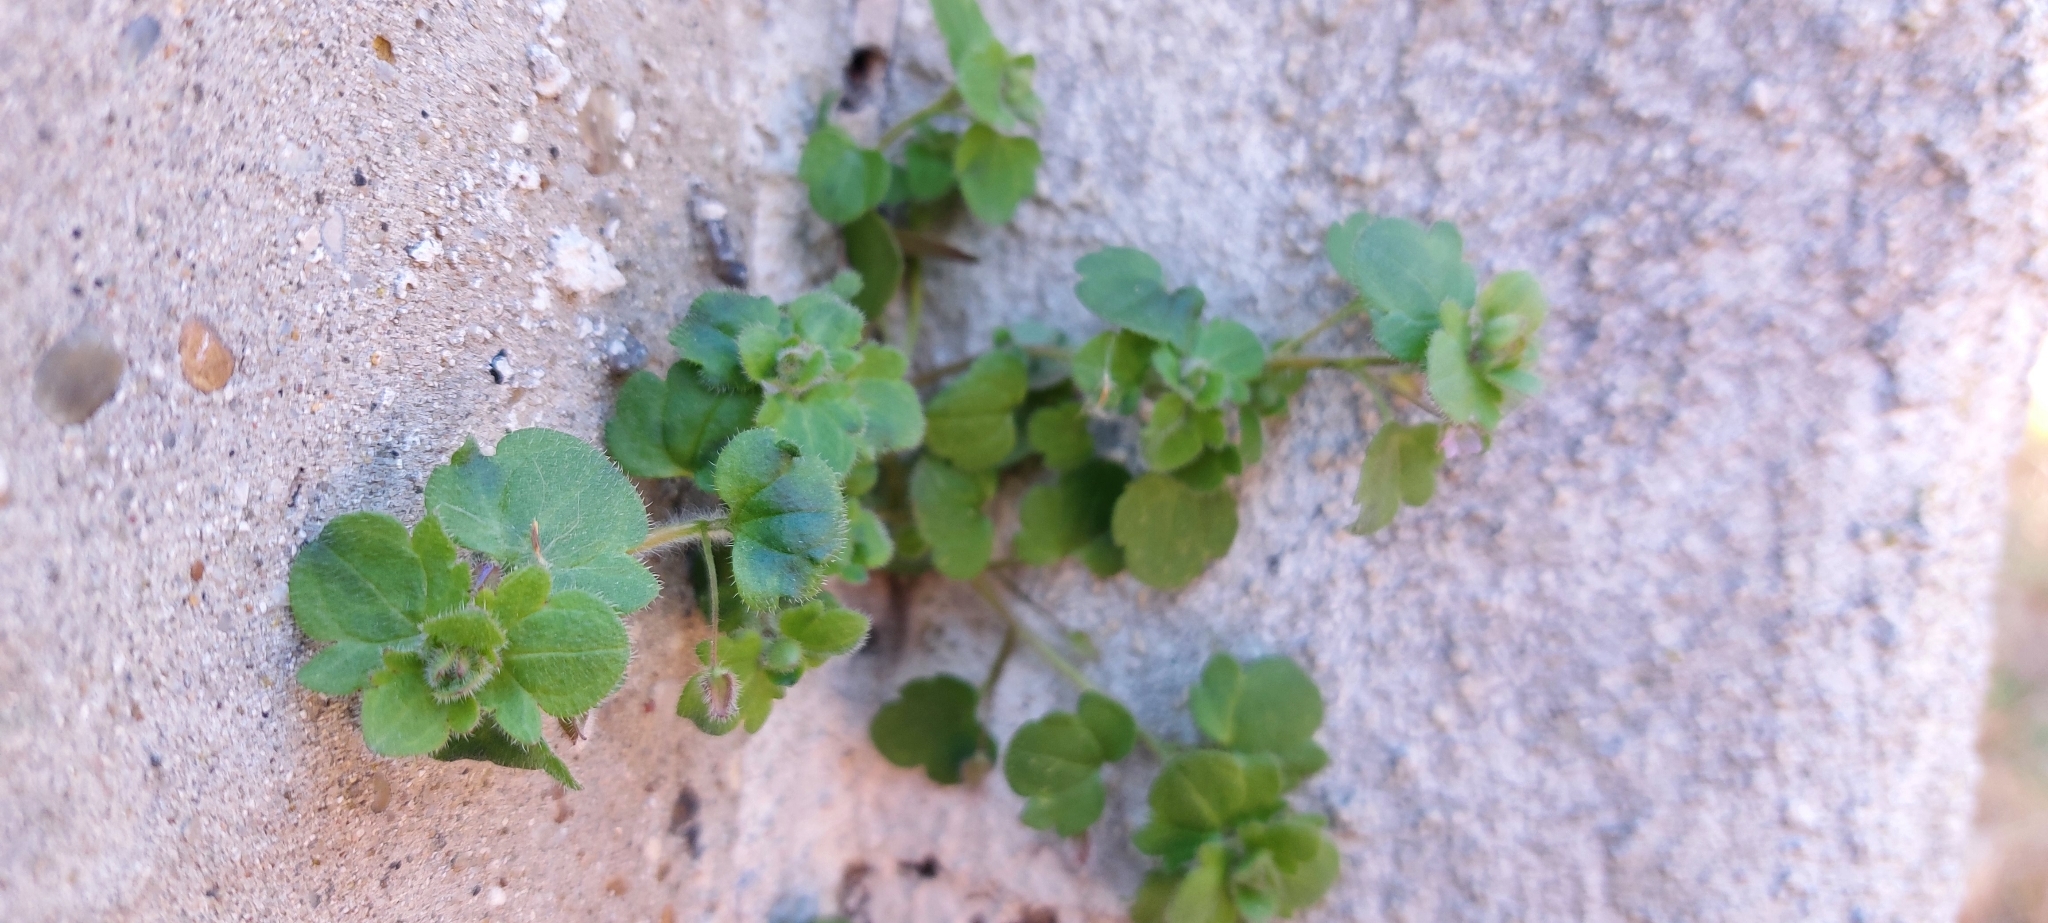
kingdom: Plantae
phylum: Tracheophyta
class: Magnoliopsida
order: Lamiales
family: Plantaginaceae
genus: Veronica
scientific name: Veronica sublobata
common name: False ivy-leaved speedwell
